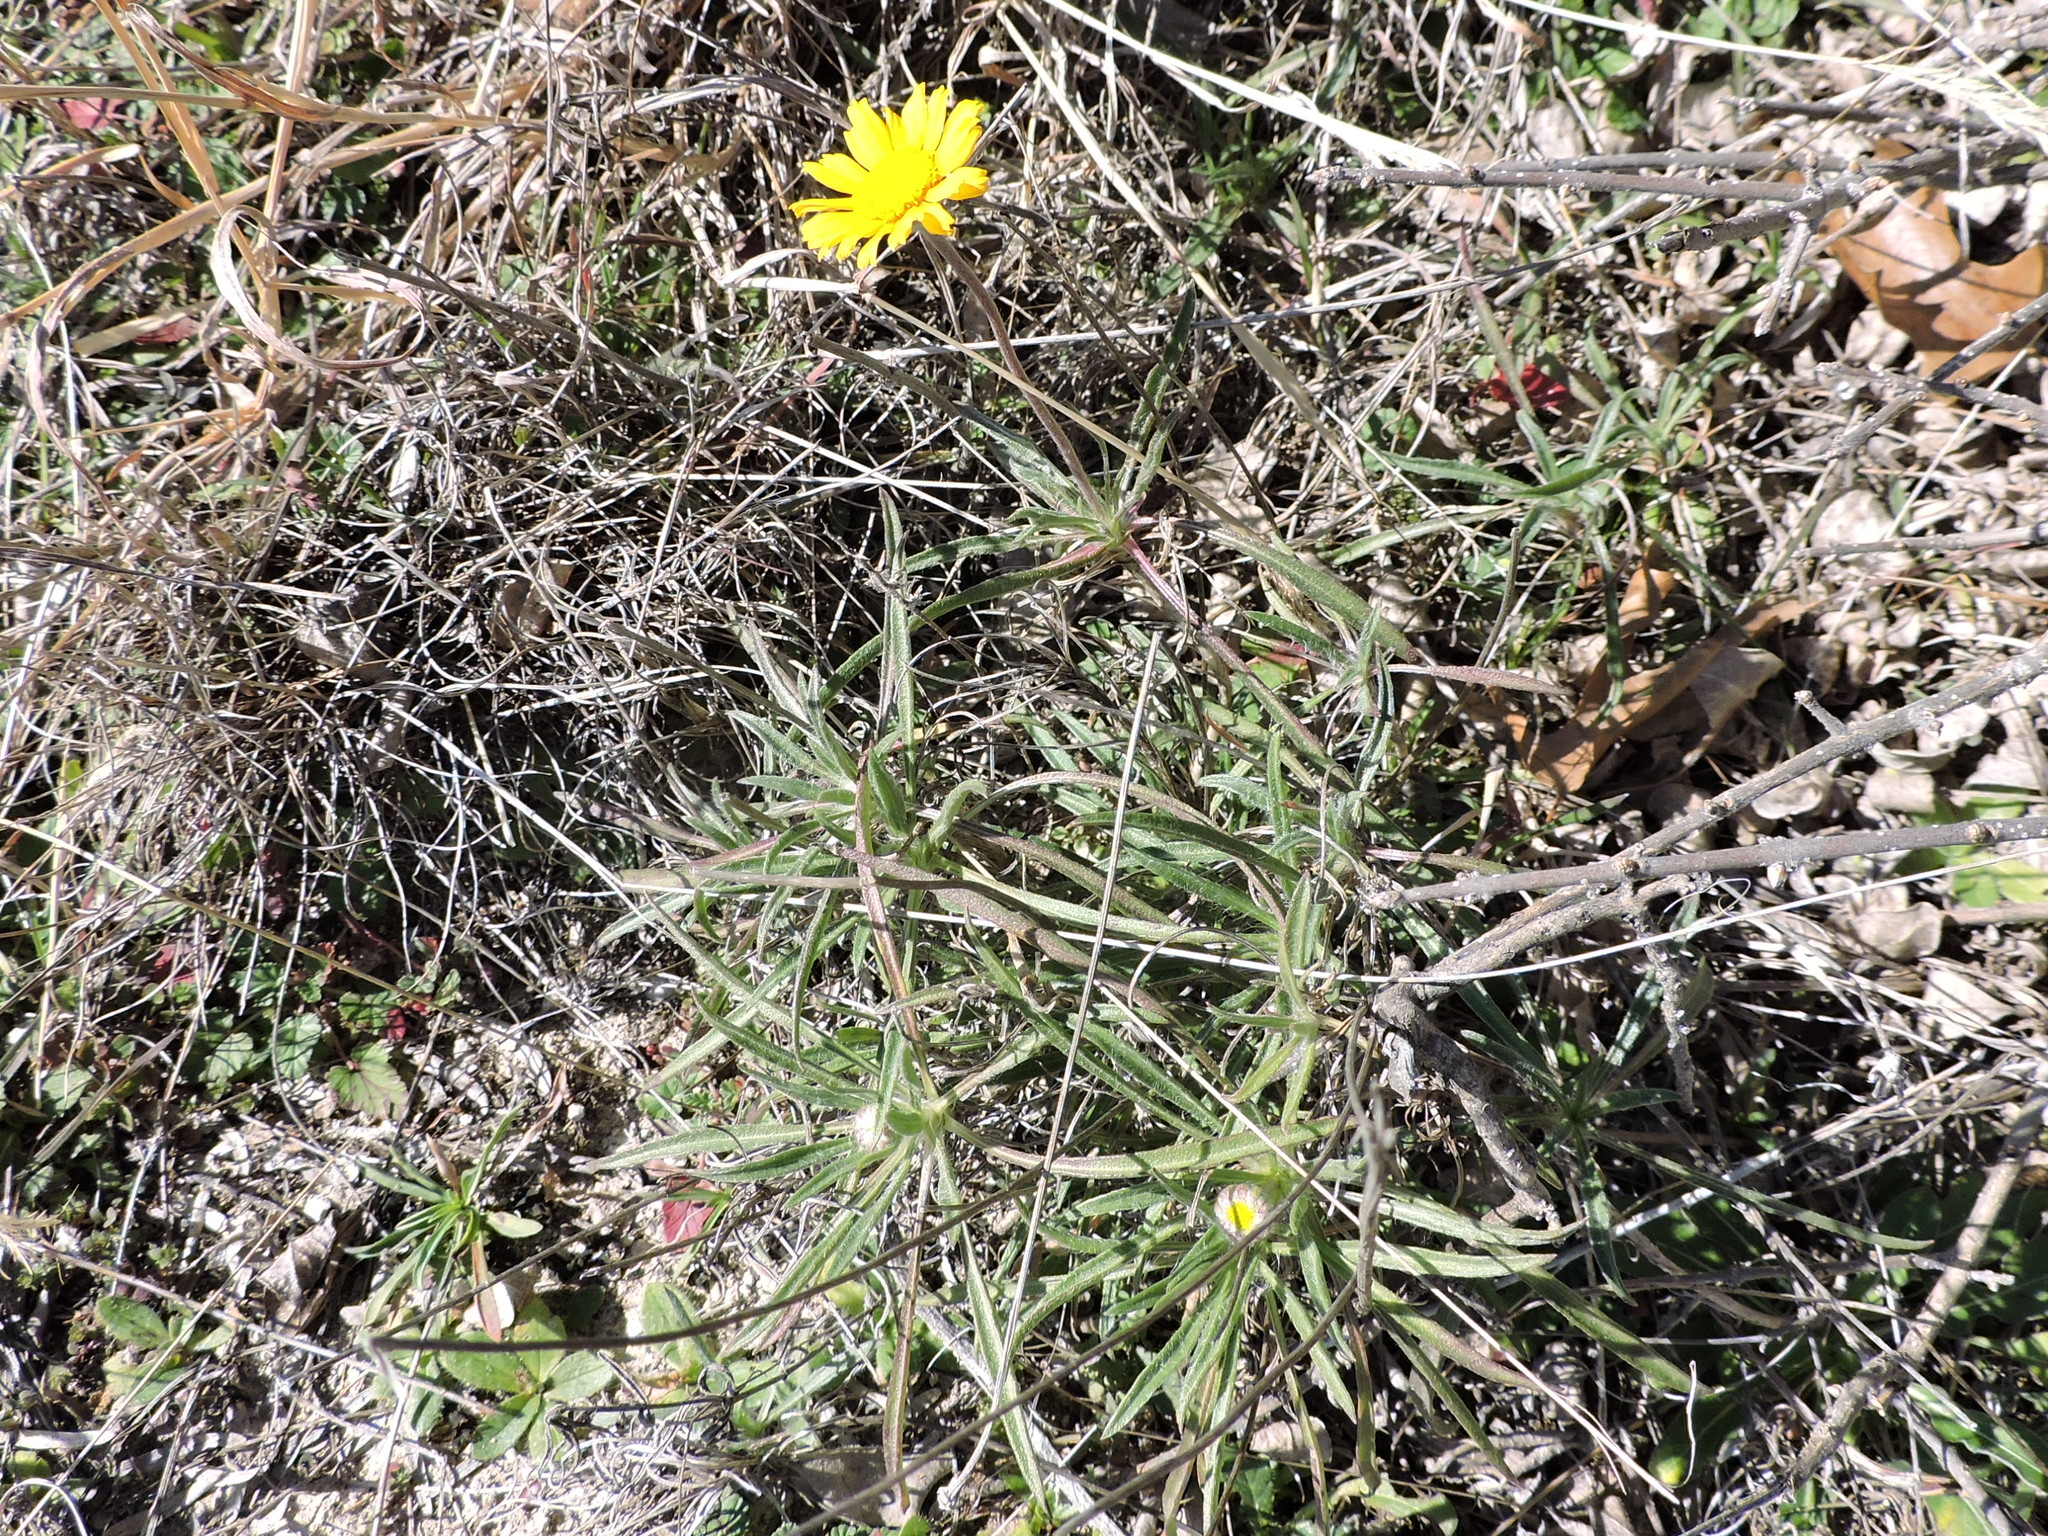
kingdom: Plantae
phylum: Tracheophyta
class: Magnoliopsida
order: Asterales
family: Asteraceae
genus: Tetraneuris
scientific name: Tetraneuris scaposa
